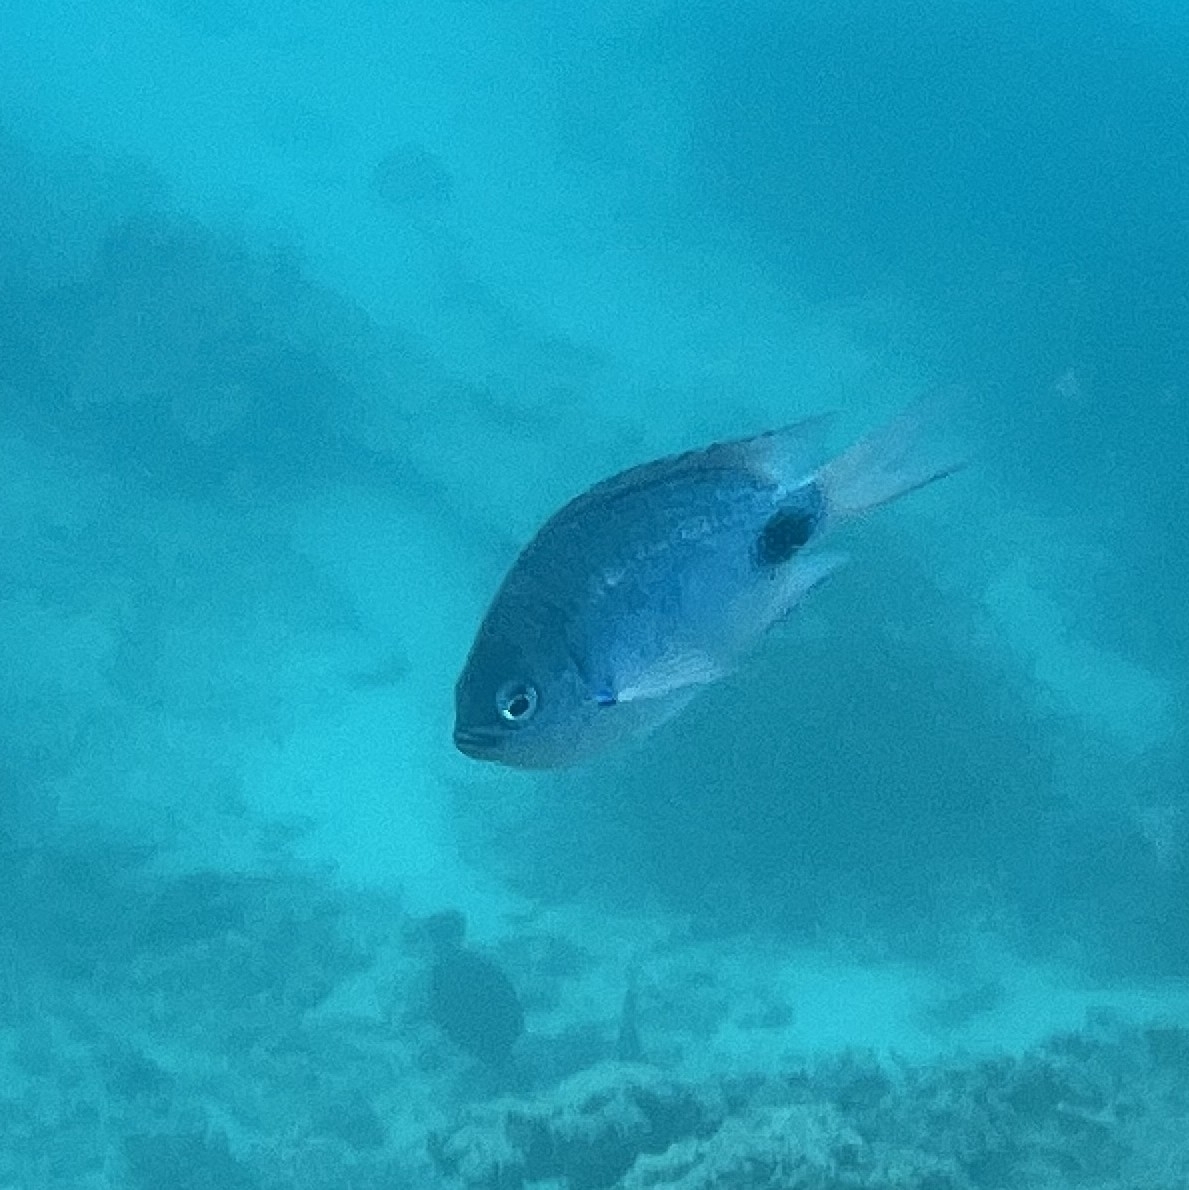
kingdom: Animalia
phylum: Chordata
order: Perciformes
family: Pomacentridae
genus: Abudefduf
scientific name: Abudefduf sparoides
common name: False-eye sergeant
